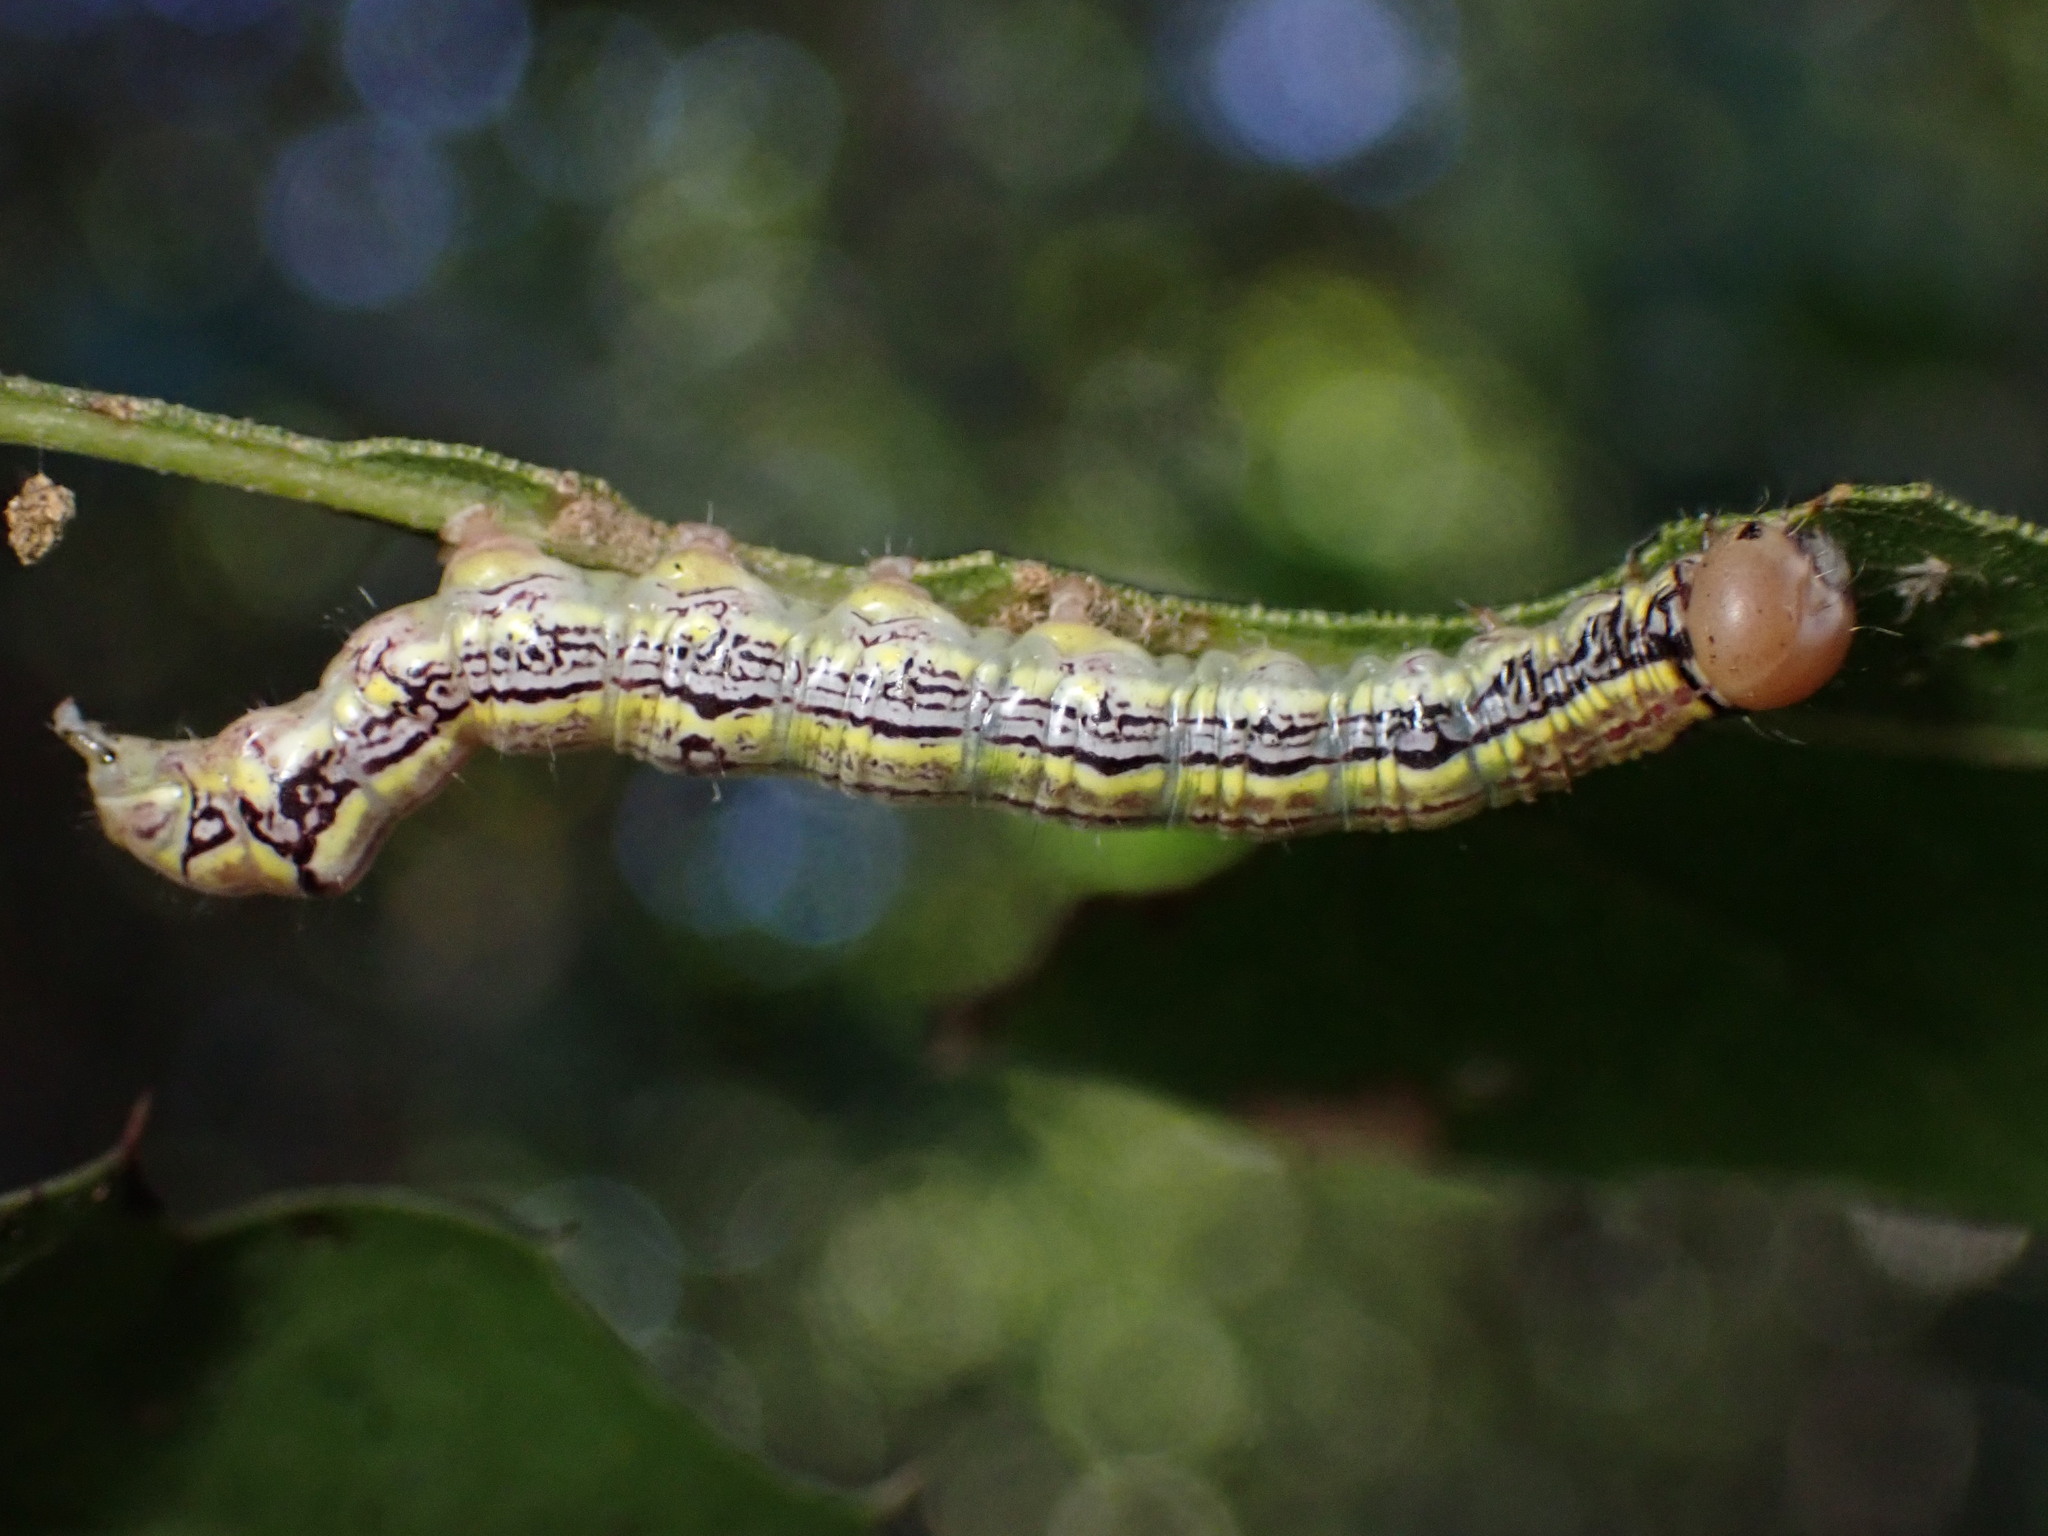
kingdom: Animalia
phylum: Arthropoda
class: Insecta
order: Lepidoptera
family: Notodontidae
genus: Phryganidia
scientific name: Phryganidia californica
